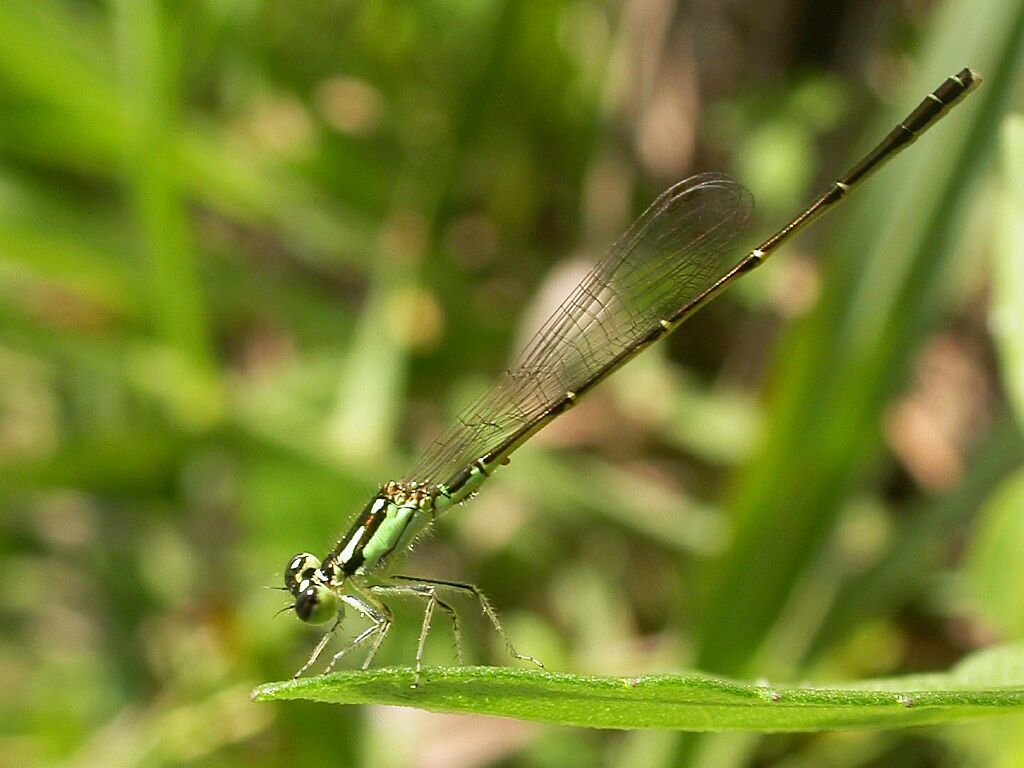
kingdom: Animalia
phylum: Arthropoda
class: Insecta
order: Odonata
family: Coenagrionidae
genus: Ischnura
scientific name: Ischnura posita
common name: Fragile forktail
